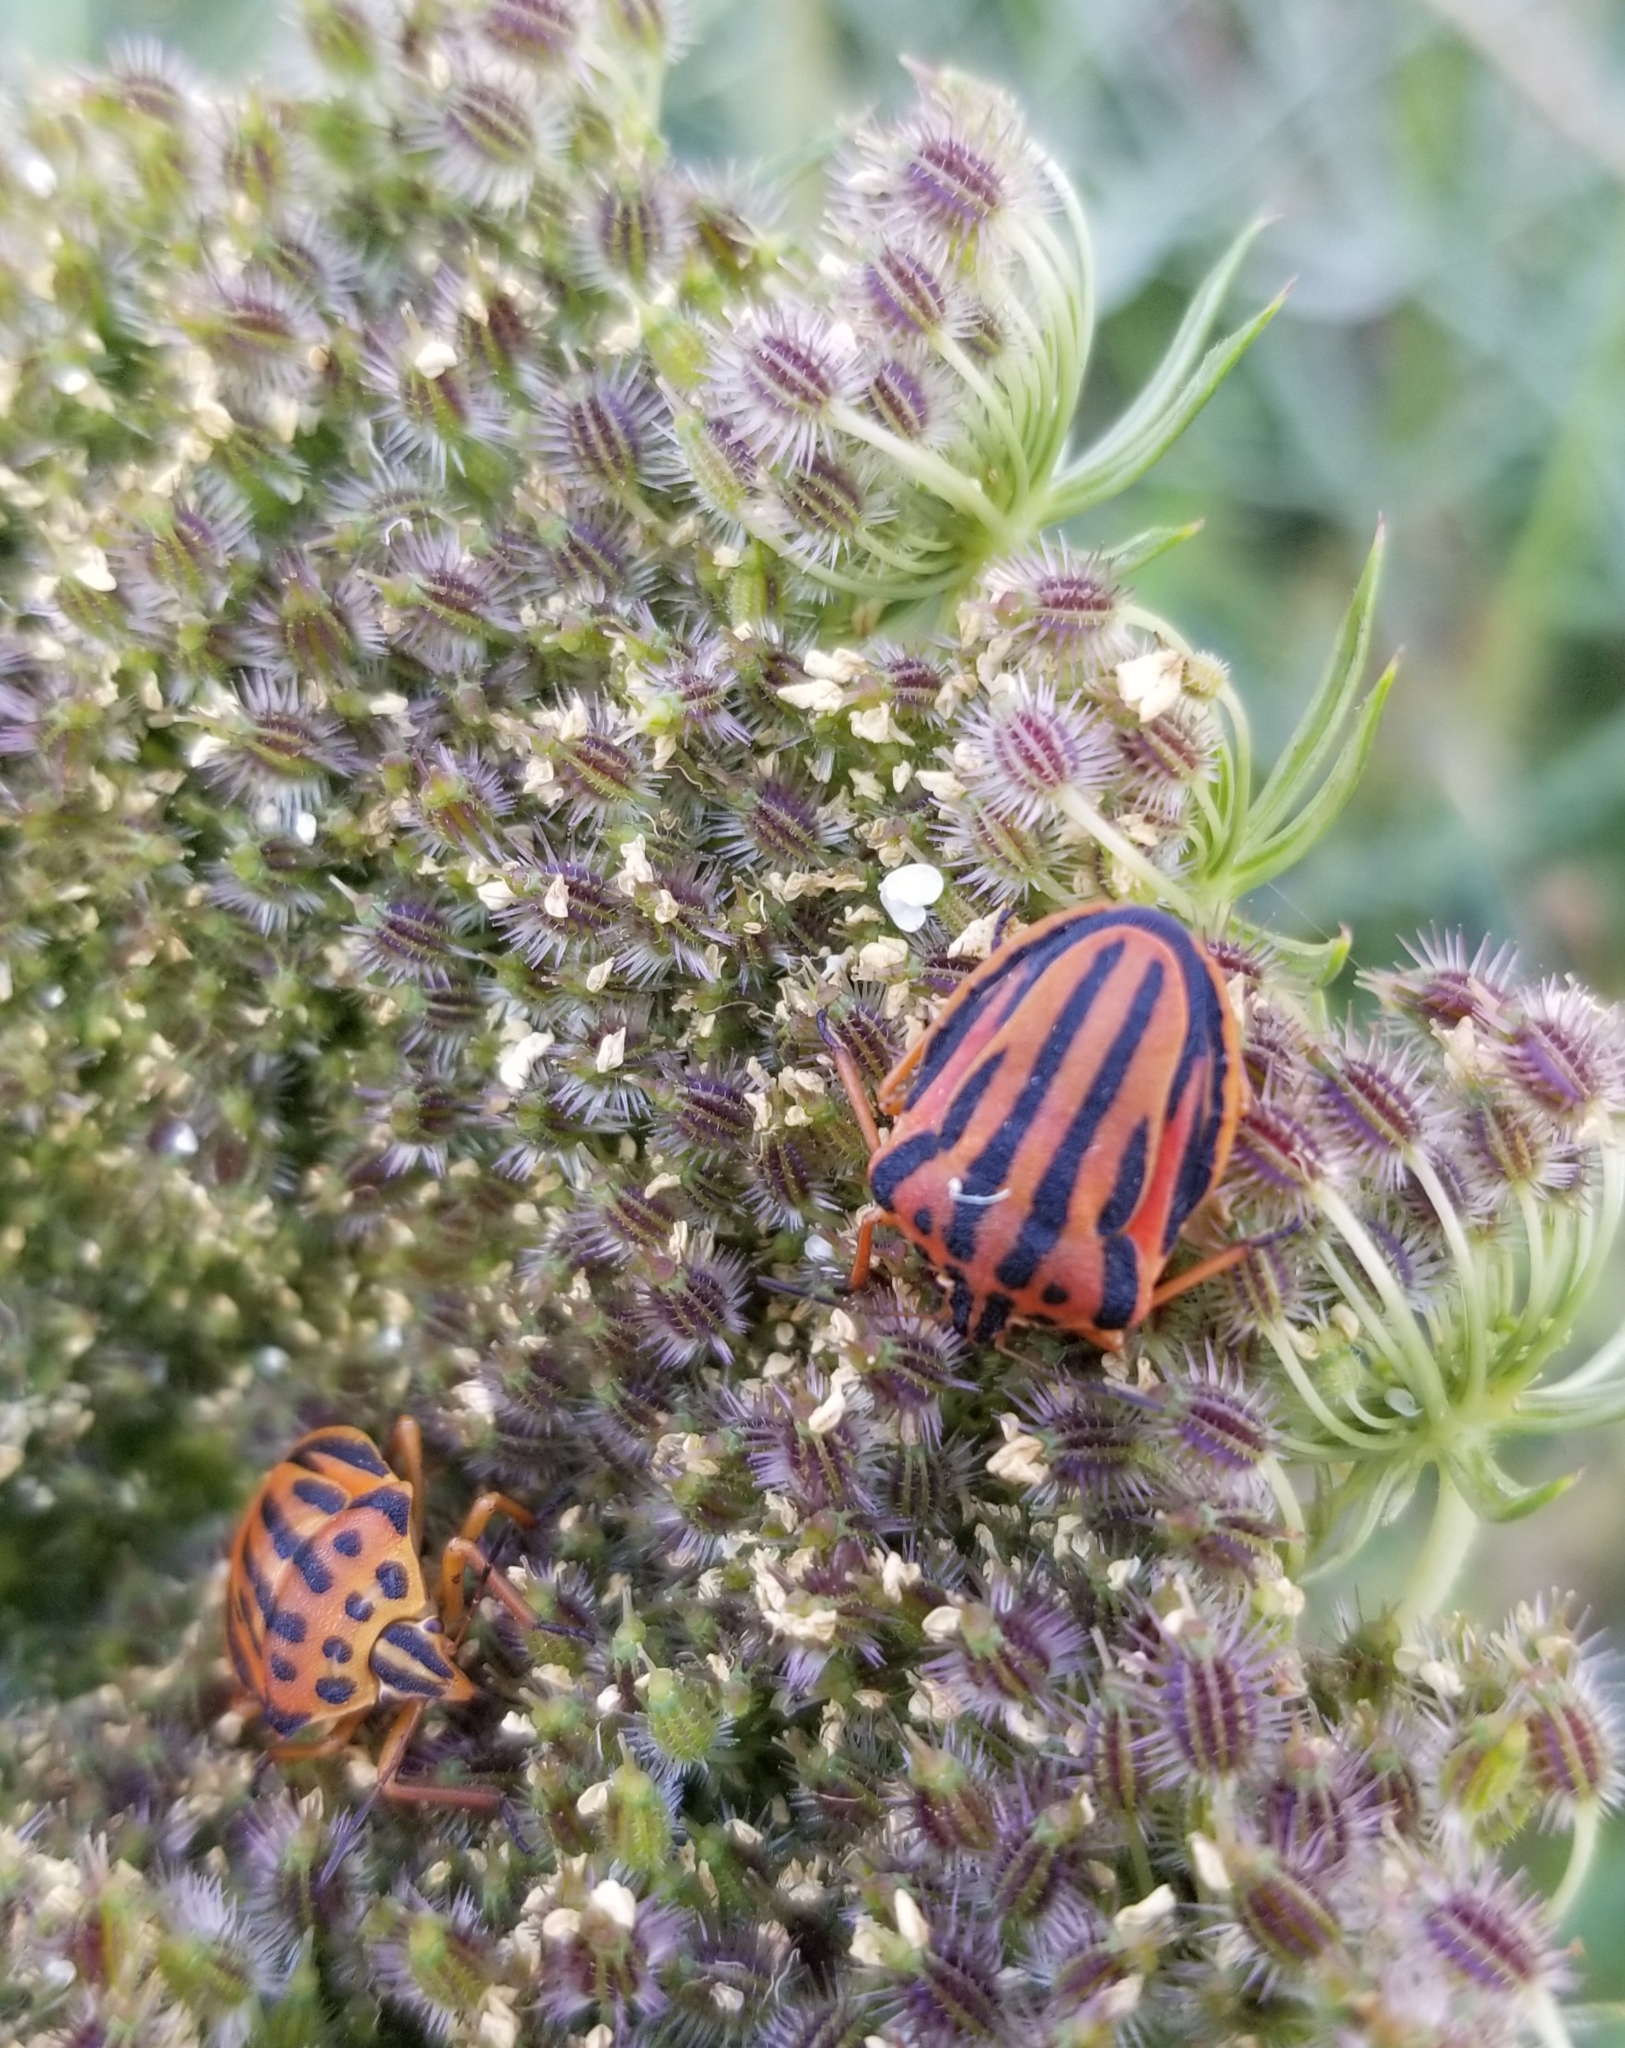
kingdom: Animalia
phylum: Arthropoda
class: Insecta
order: Hemiptera
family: Pentatomidae
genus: Graphosoma
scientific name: Graphosoma semipunctatum
